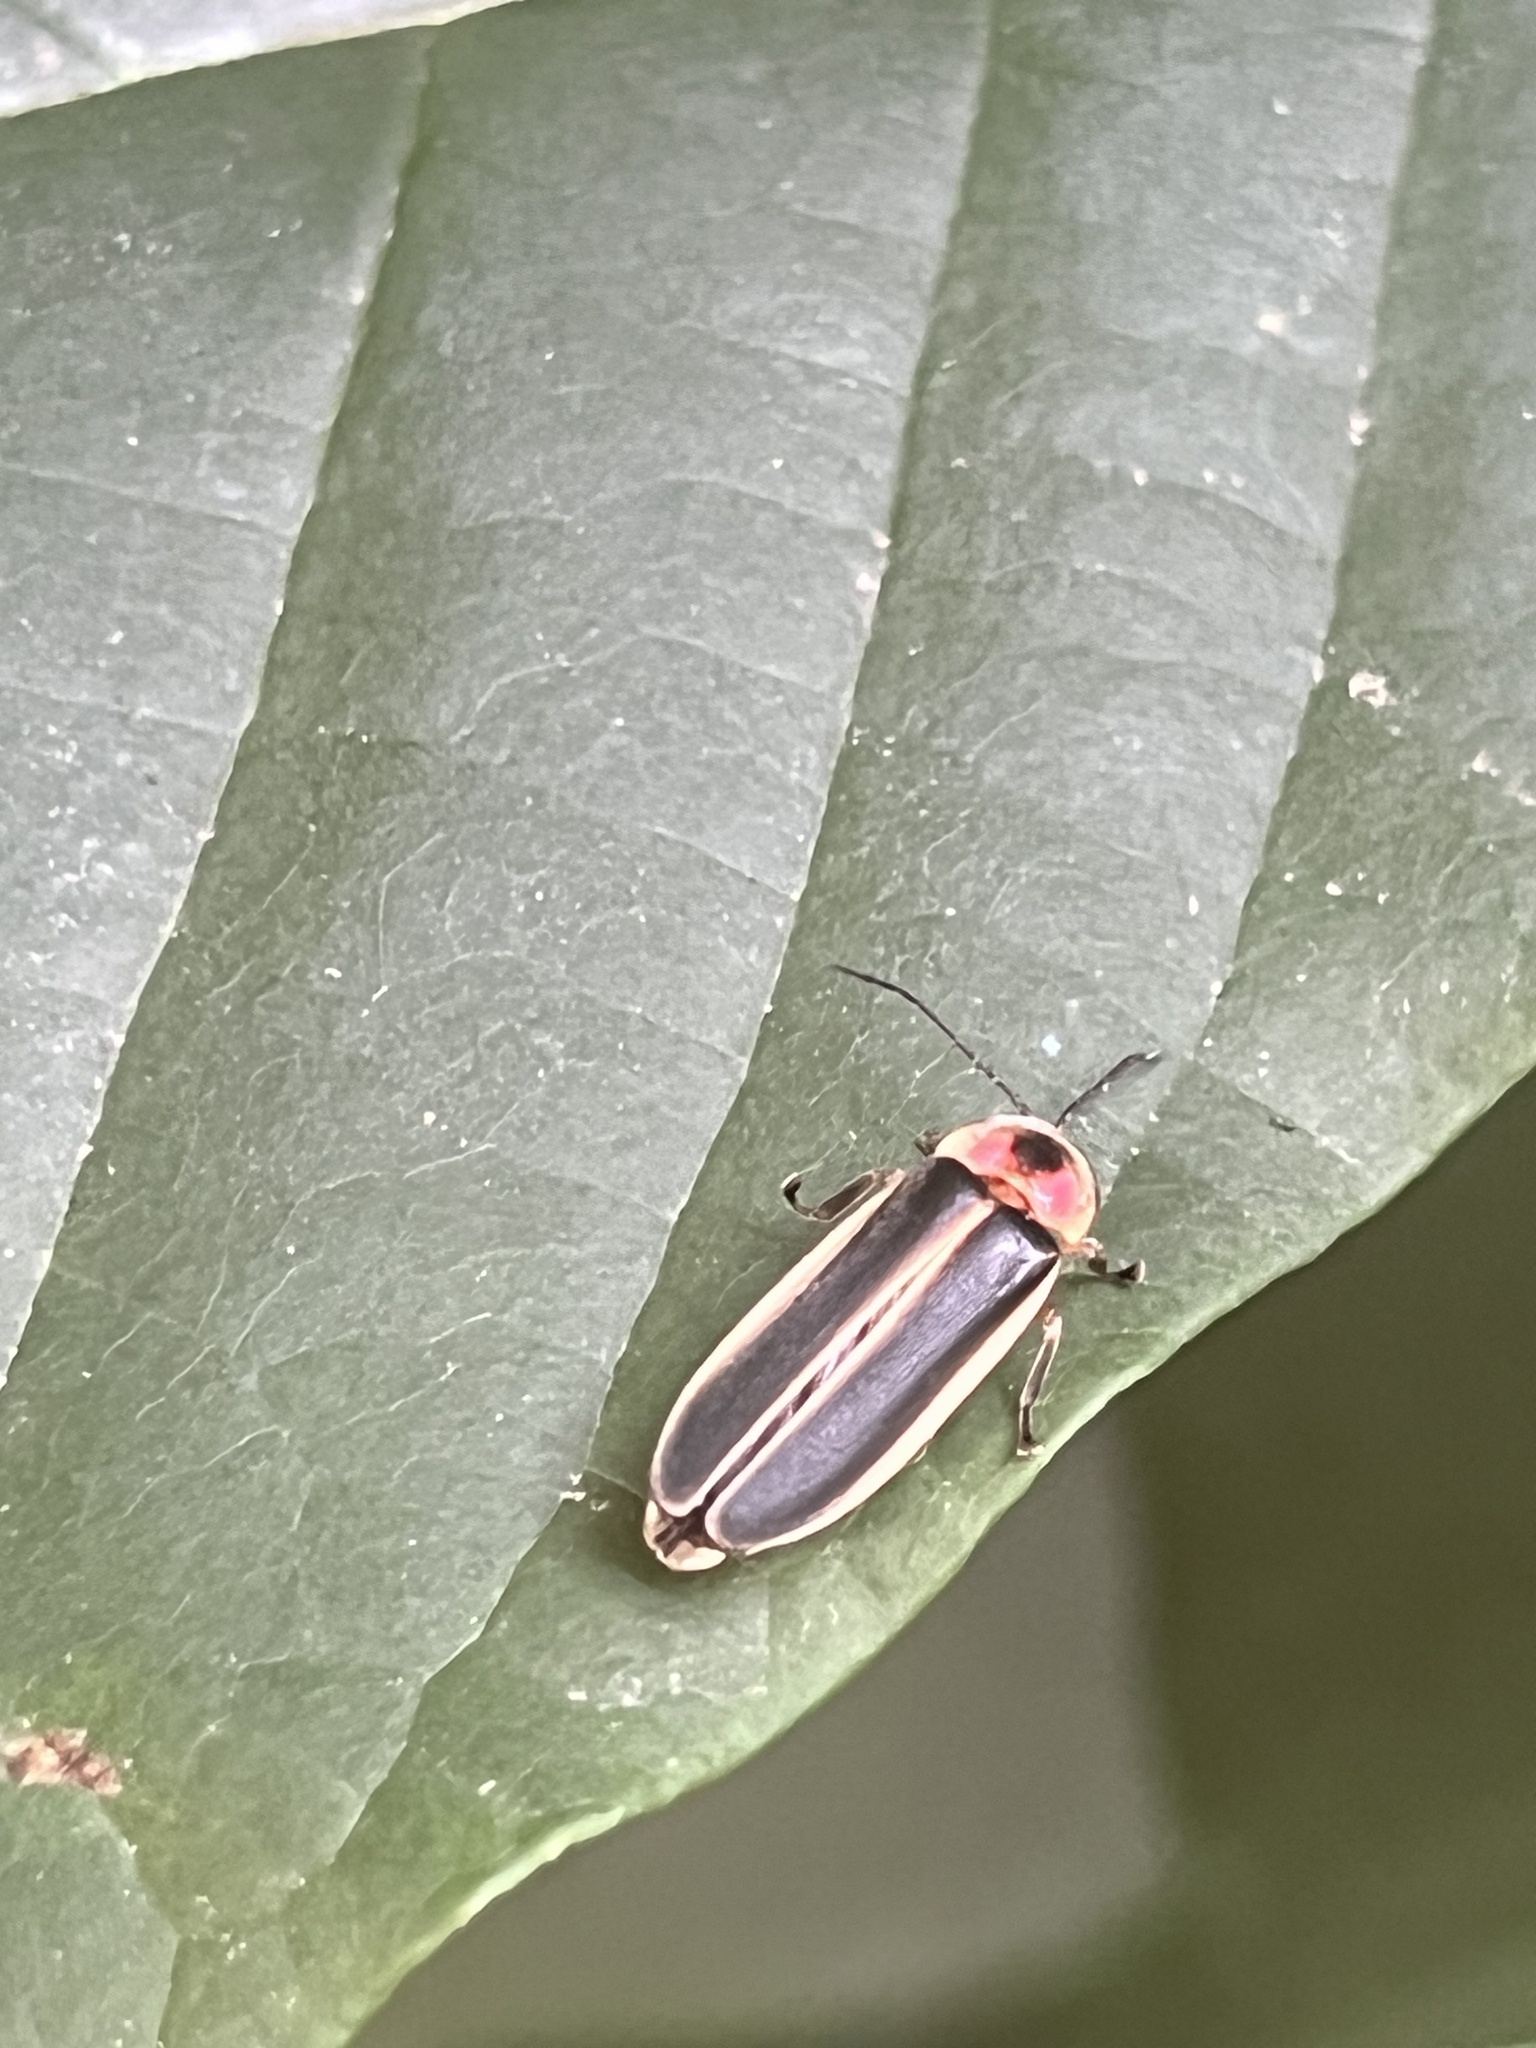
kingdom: Animalia
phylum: Arthropoda
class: Insecta
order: Coleoptera
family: Lampyridae
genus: Photinus
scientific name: Photinus pyralis
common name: Big dipper firefly
